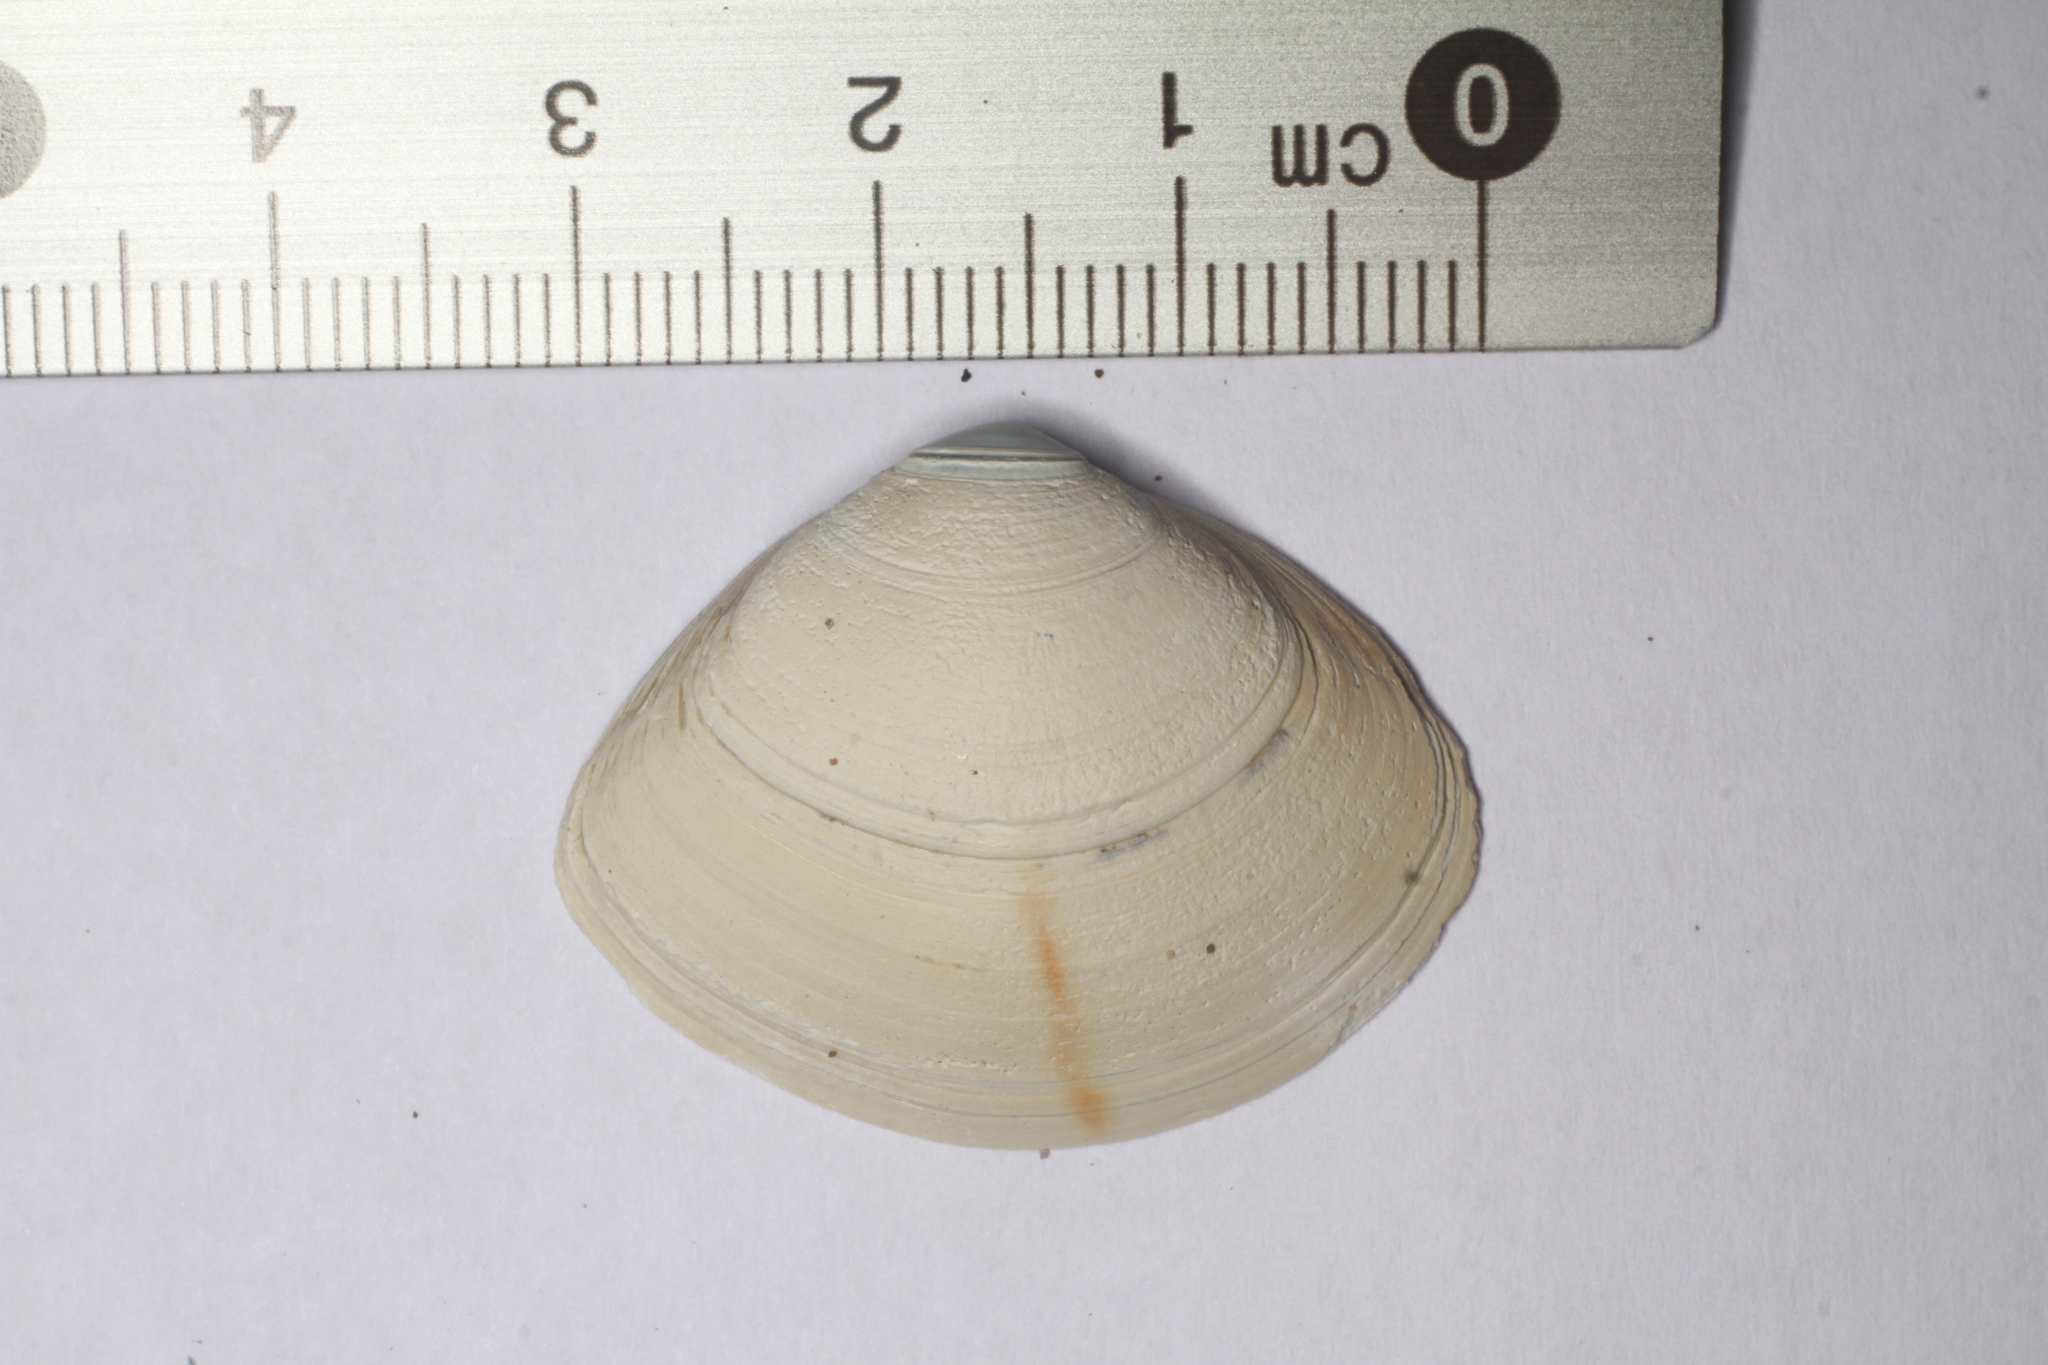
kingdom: Animalia
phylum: Mollusca
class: Bivalvia
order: Venerida
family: Mactridae
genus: Spisula
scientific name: Spisula solida
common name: Thick trough shell
